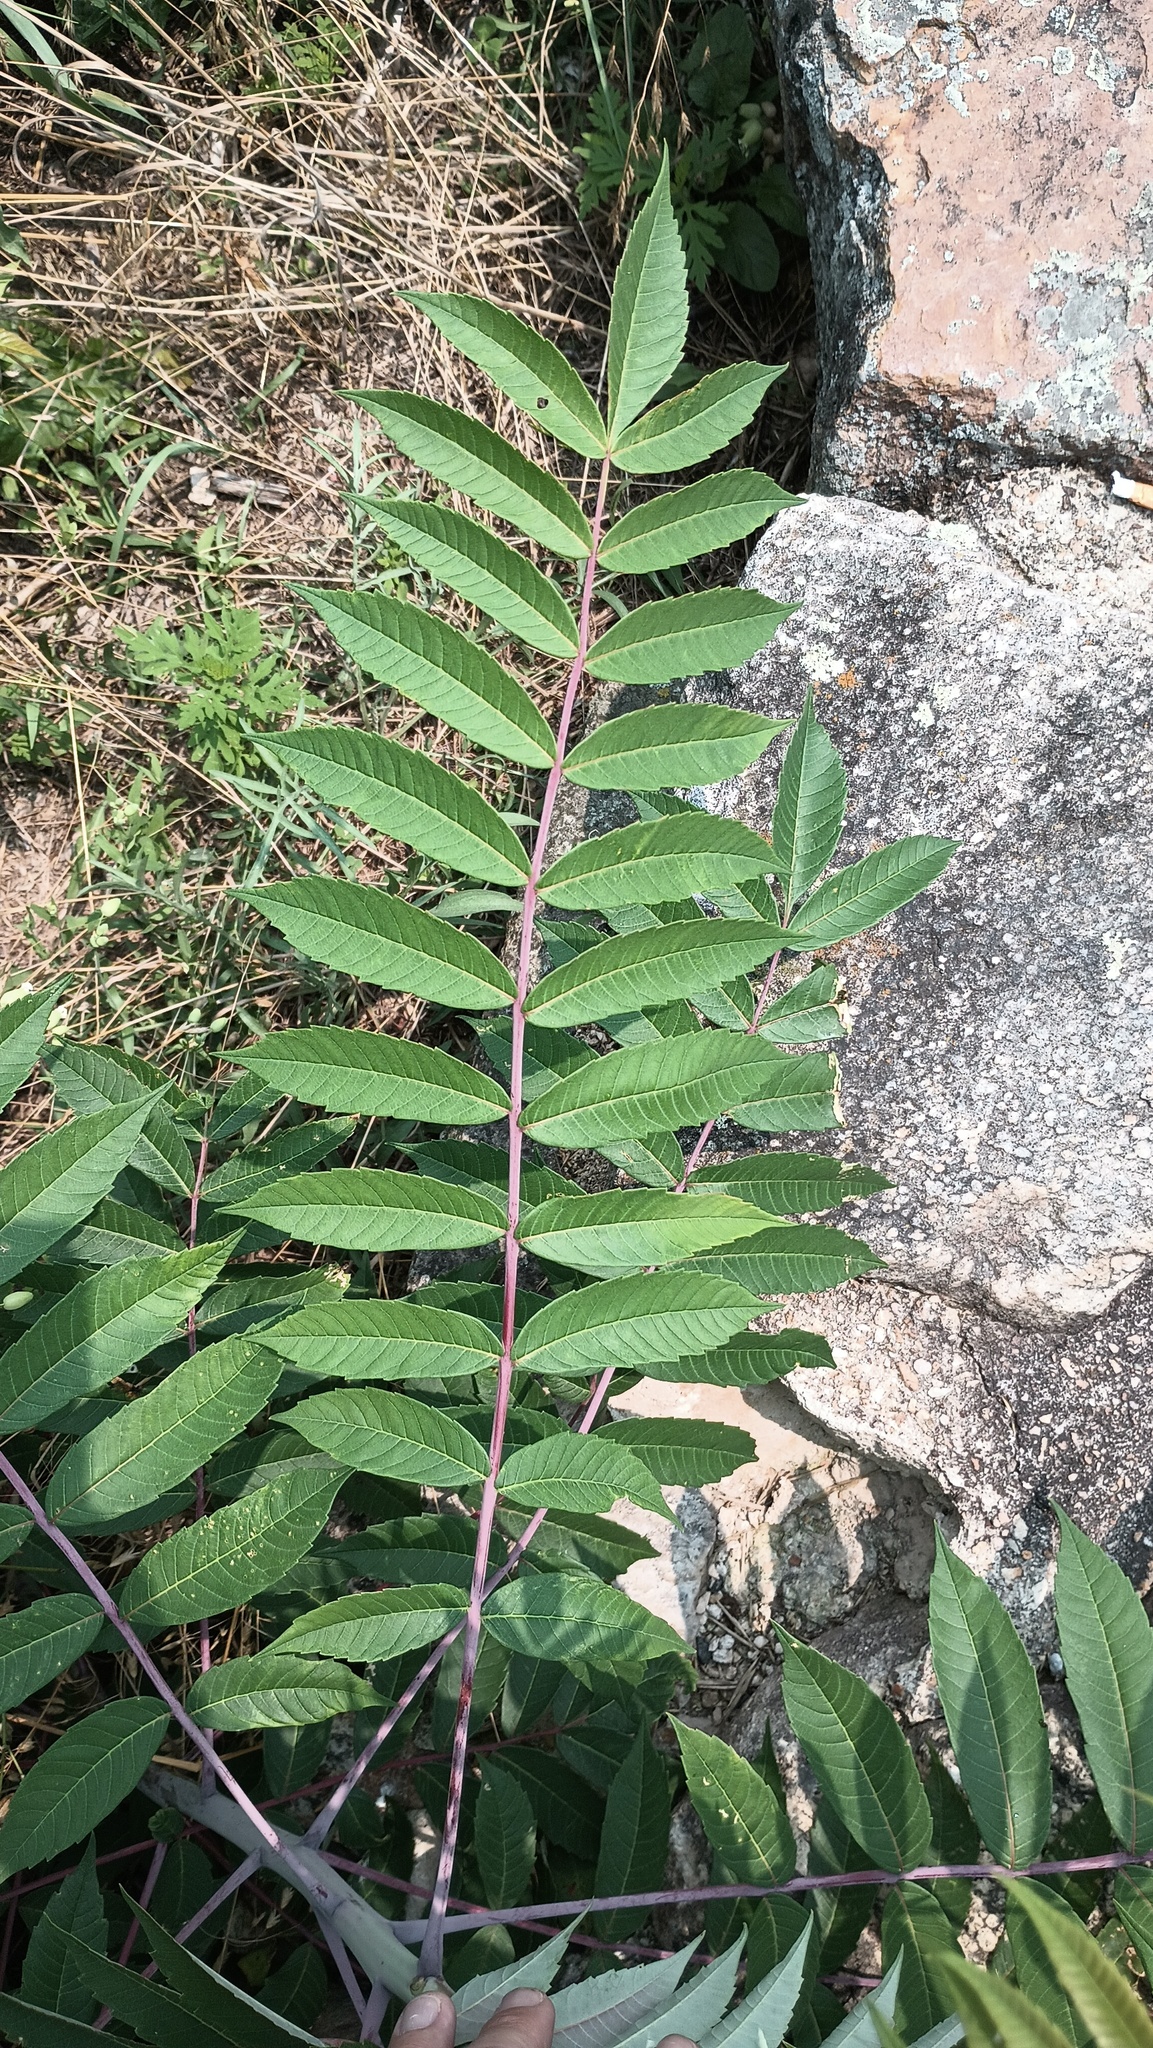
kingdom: Plantae
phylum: Tracheophyta
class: Magnoliopsida
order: Sapindales
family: Anacardiaceae
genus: Rhus
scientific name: Rhus glabra
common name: Scarlet sumac
